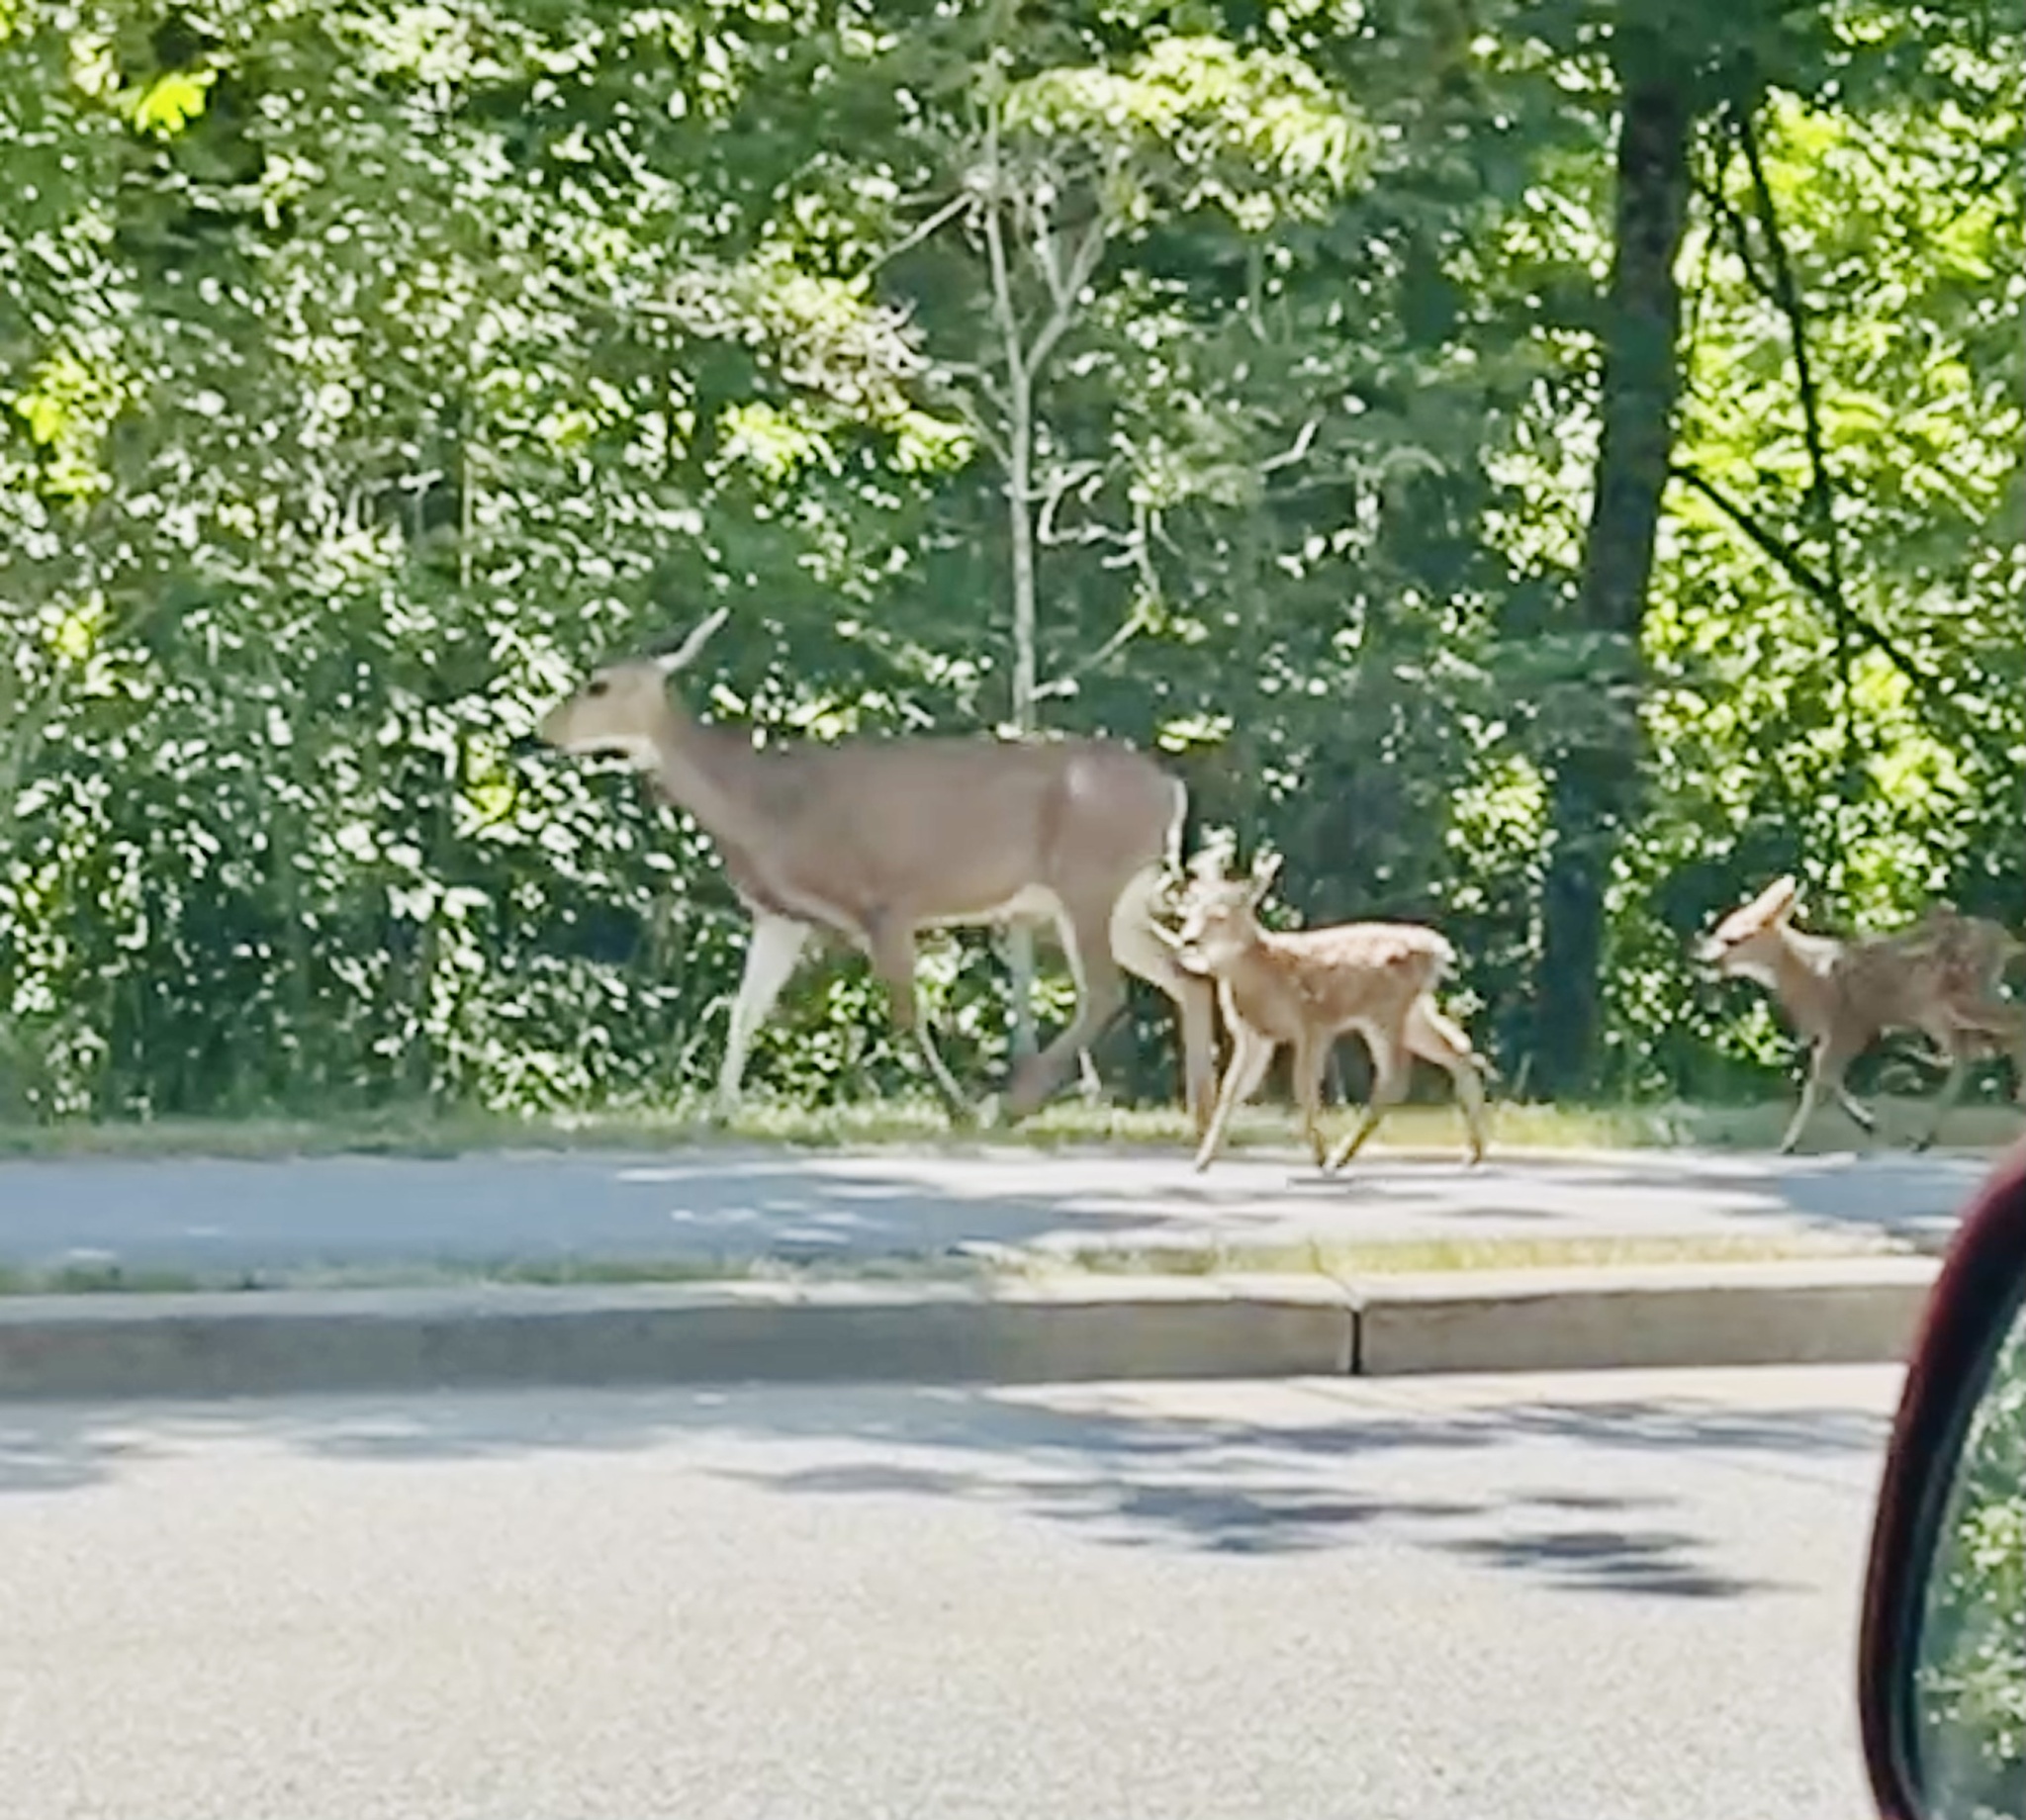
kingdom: Animalia
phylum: Chordata
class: Mammalia
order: Artiodactyla
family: Cervidae
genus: Odocoileus
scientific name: Odocoileus hemionus
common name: Mule deer
